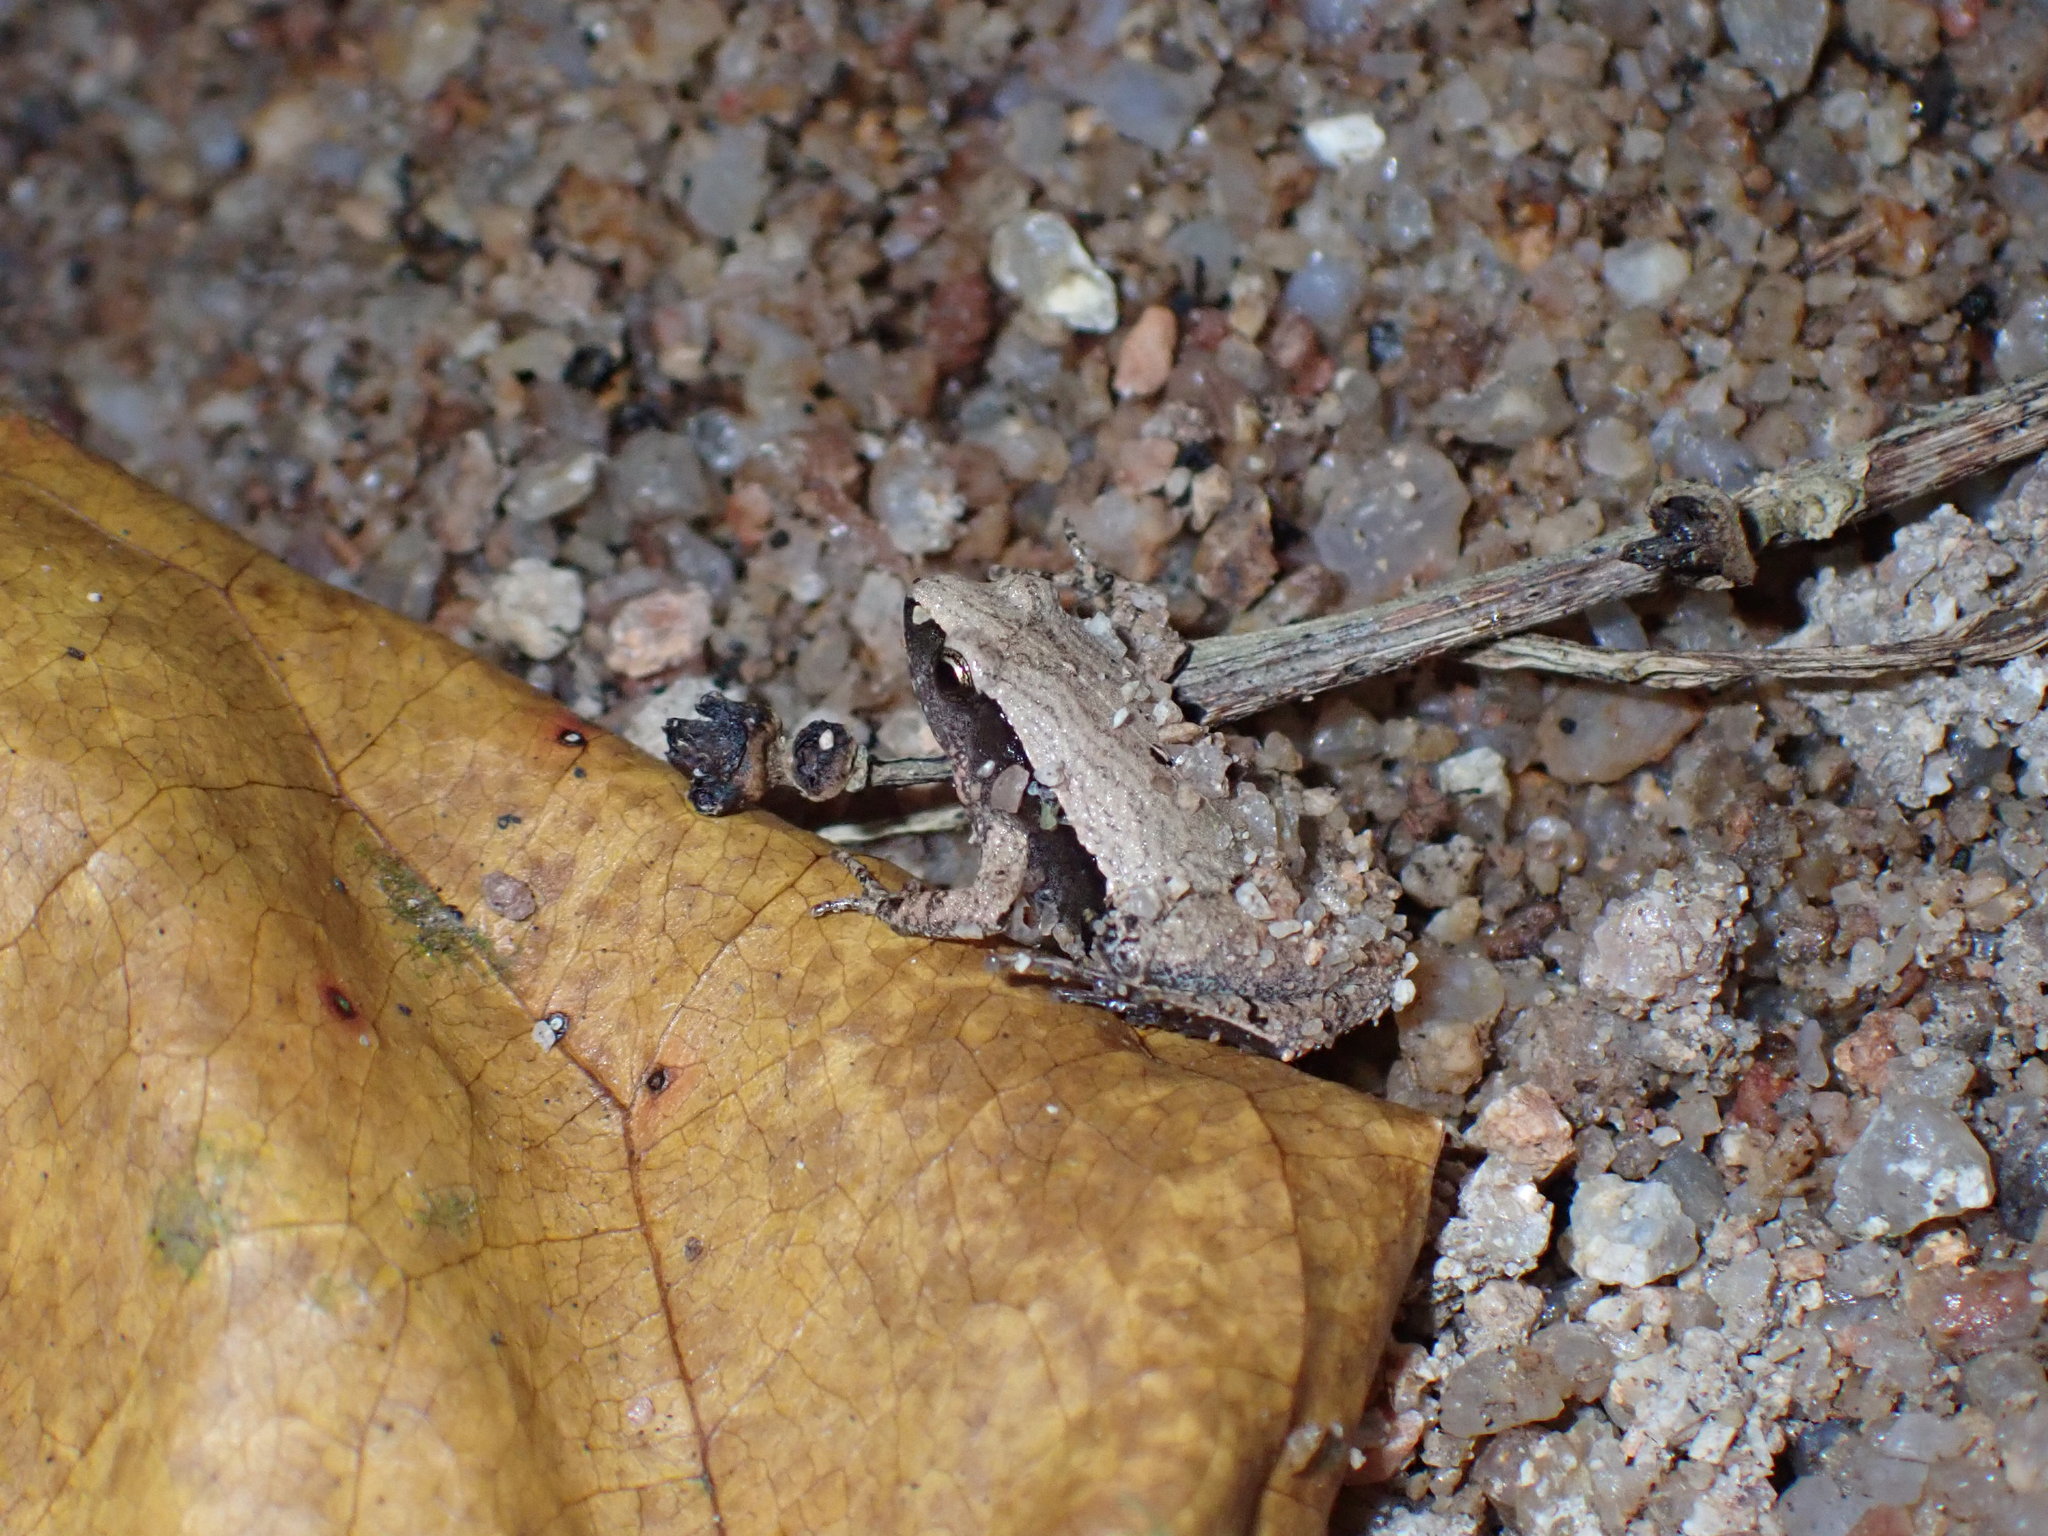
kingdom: Animalia
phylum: Chordata
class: Amphibia
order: Anura
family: Microhylidae
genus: Microhyla
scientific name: Microhyla heymonsi
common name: Taiwan rice frog,dark sided chorus frog
